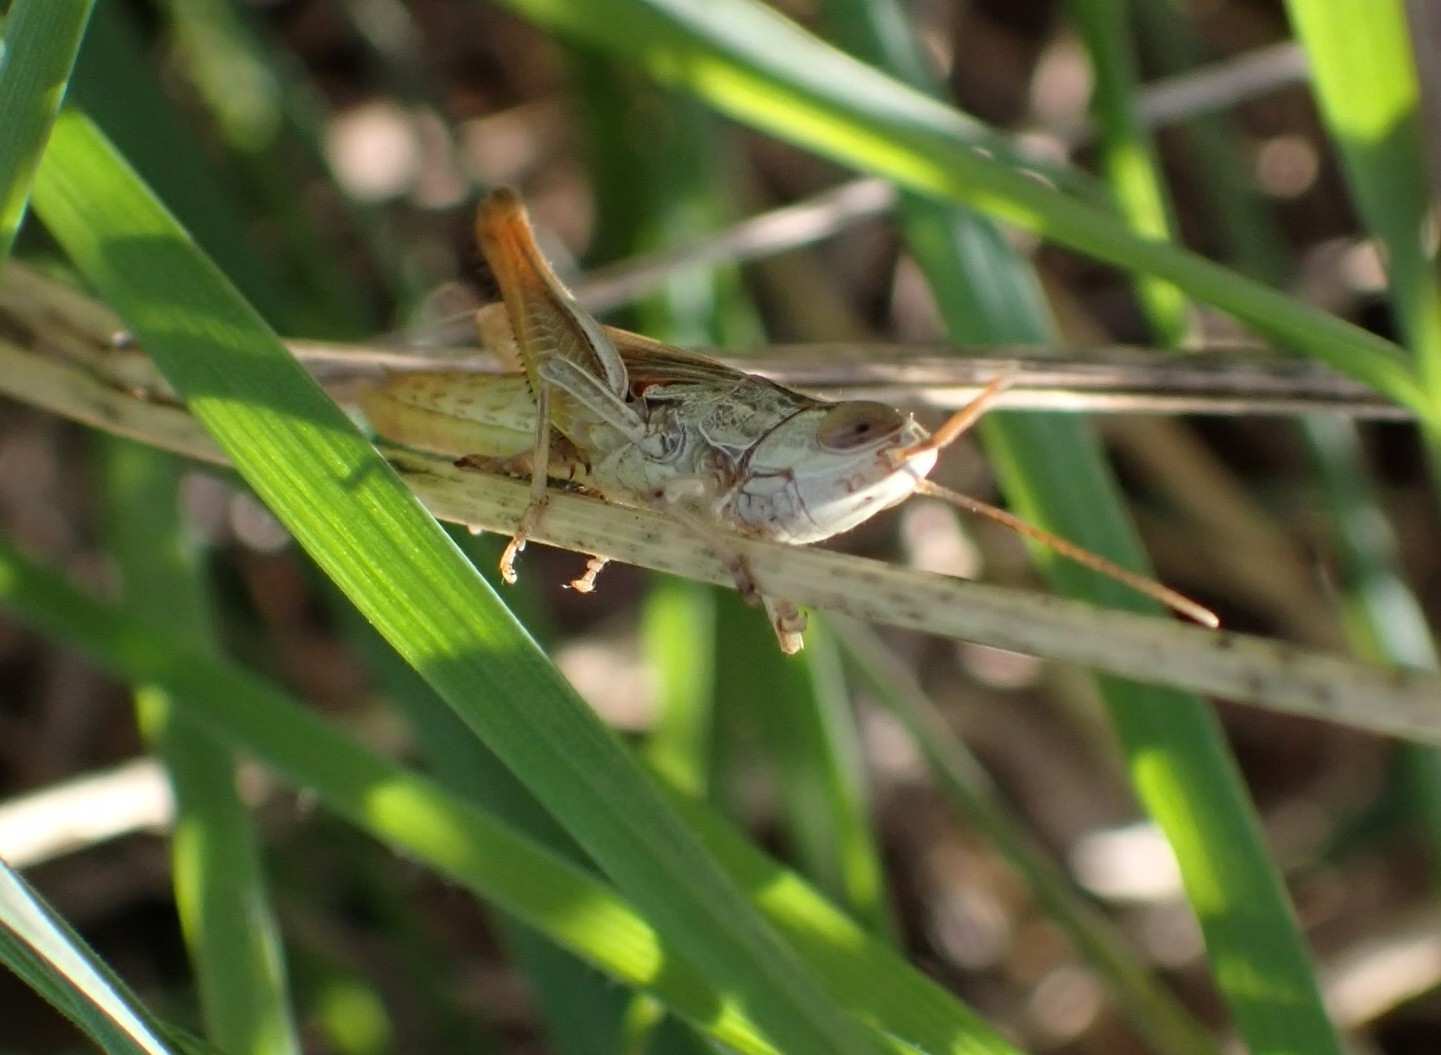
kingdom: Animalia
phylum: Arthropoda
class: Insecta
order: Orthoptera
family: Acrididae
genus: Euchorthippus
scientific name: Euchorthippus elegantulus
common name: Elegant straw grasshopper
